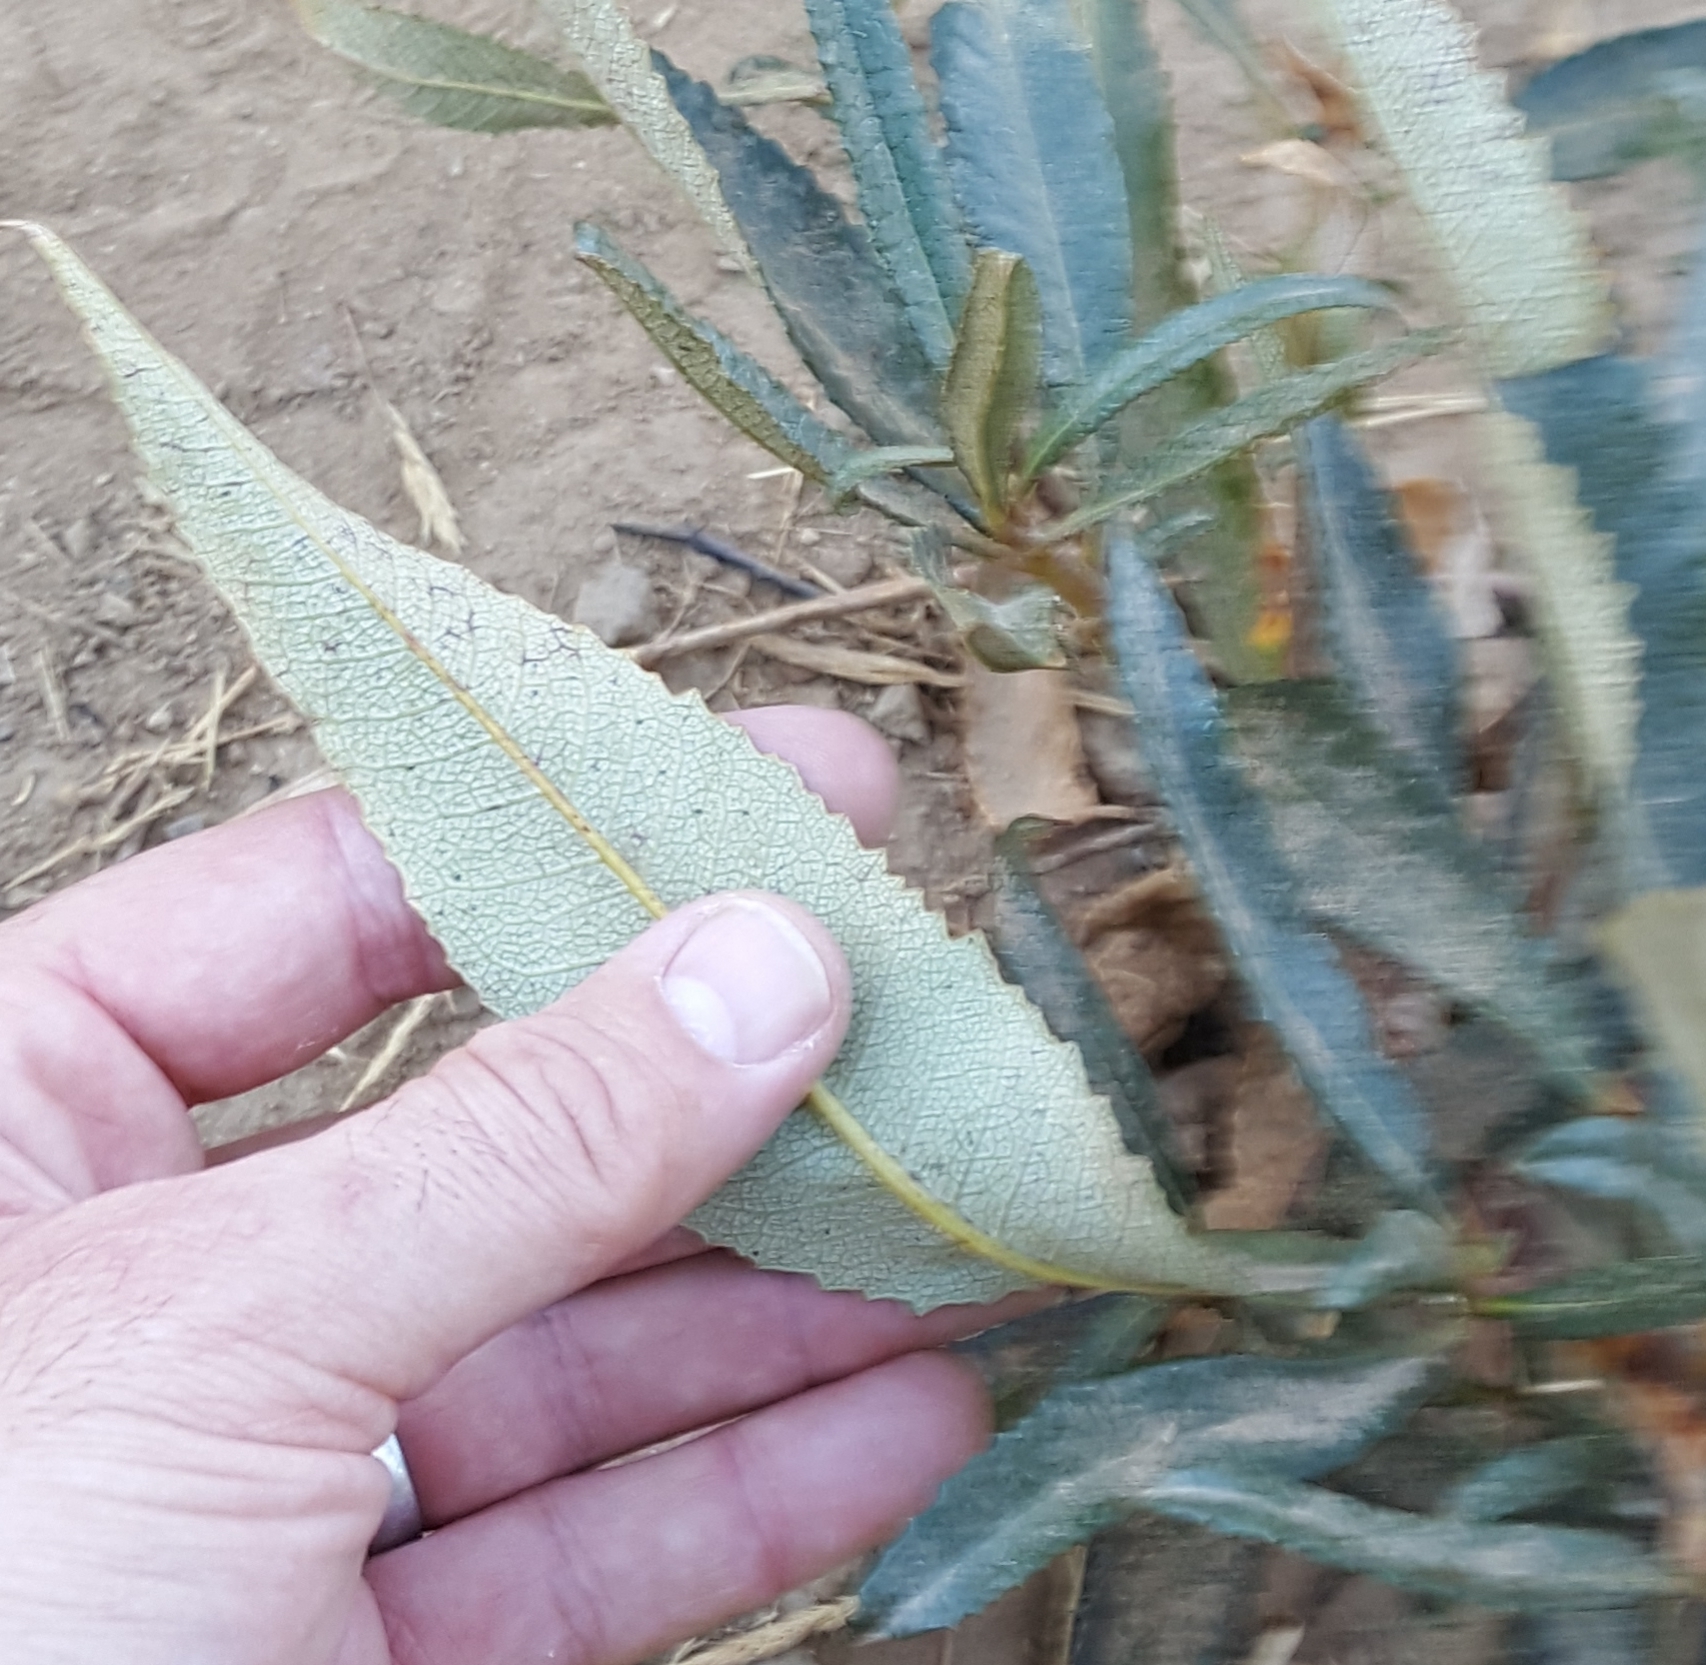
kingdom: Plantae
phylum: Tracheophyta
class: Magnoliopsida
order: Boraginales
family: Namaceae
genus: Eriodictyon
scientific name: Eriodictyon californicum
